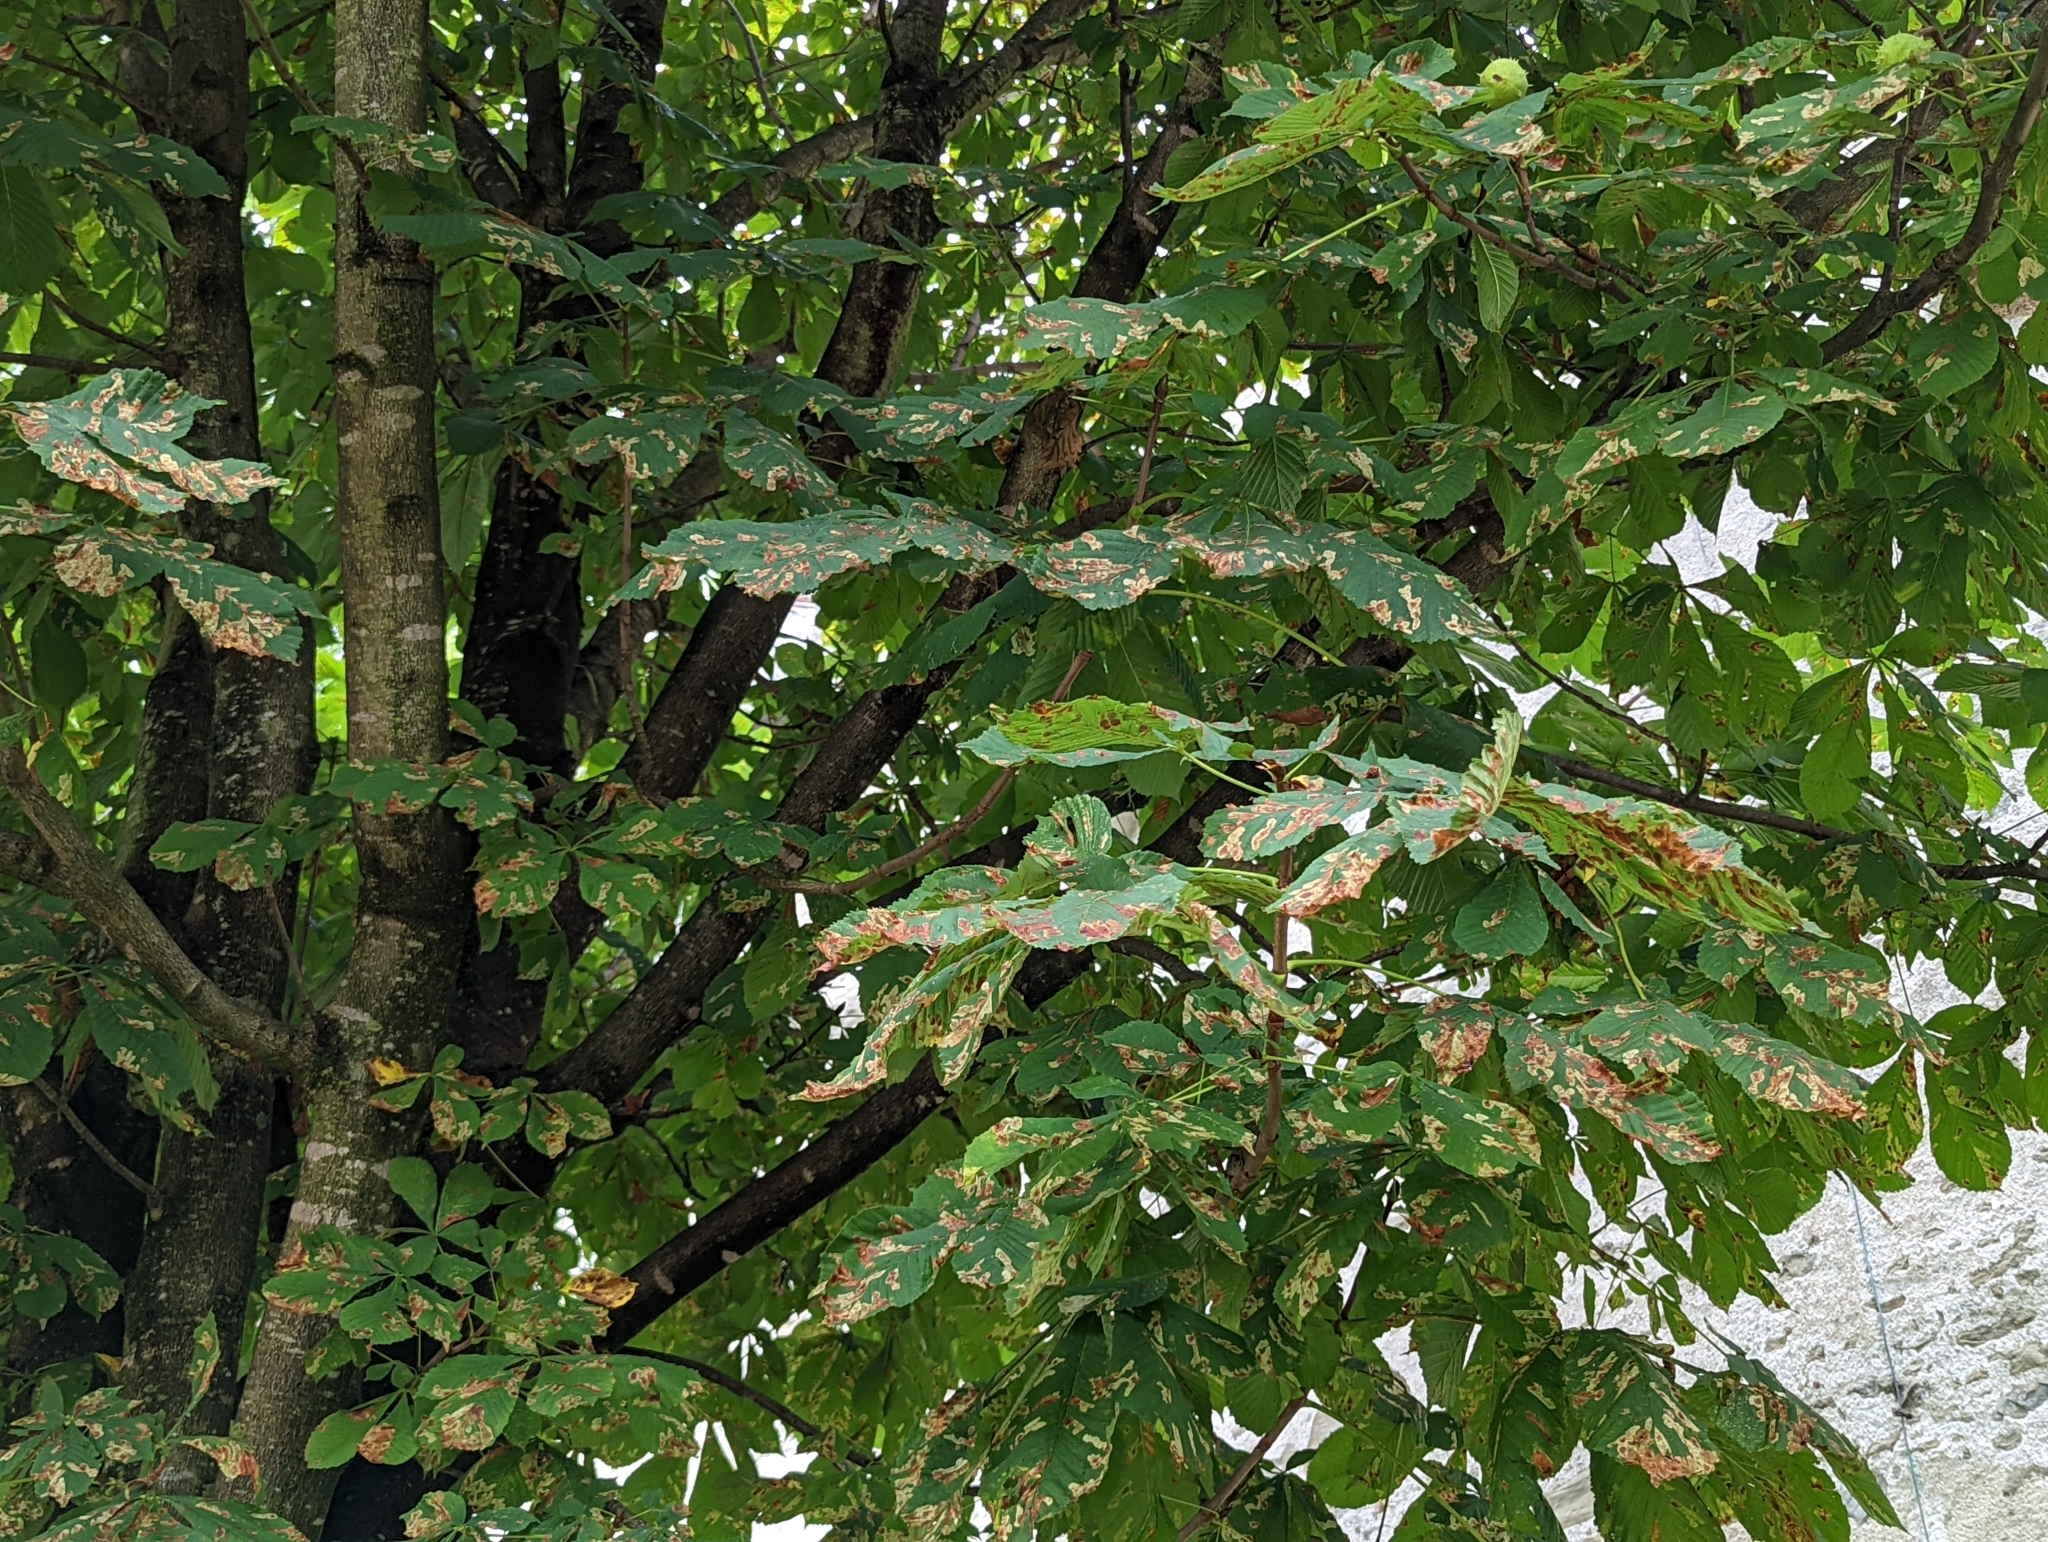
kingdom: Animalia
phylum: Arthropoda
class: Insecta
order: Lepidoptera
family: Gracillariidae
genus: Cameraria
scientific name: Cameraria ohridella
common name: Horse-chestnut leaf-miner
